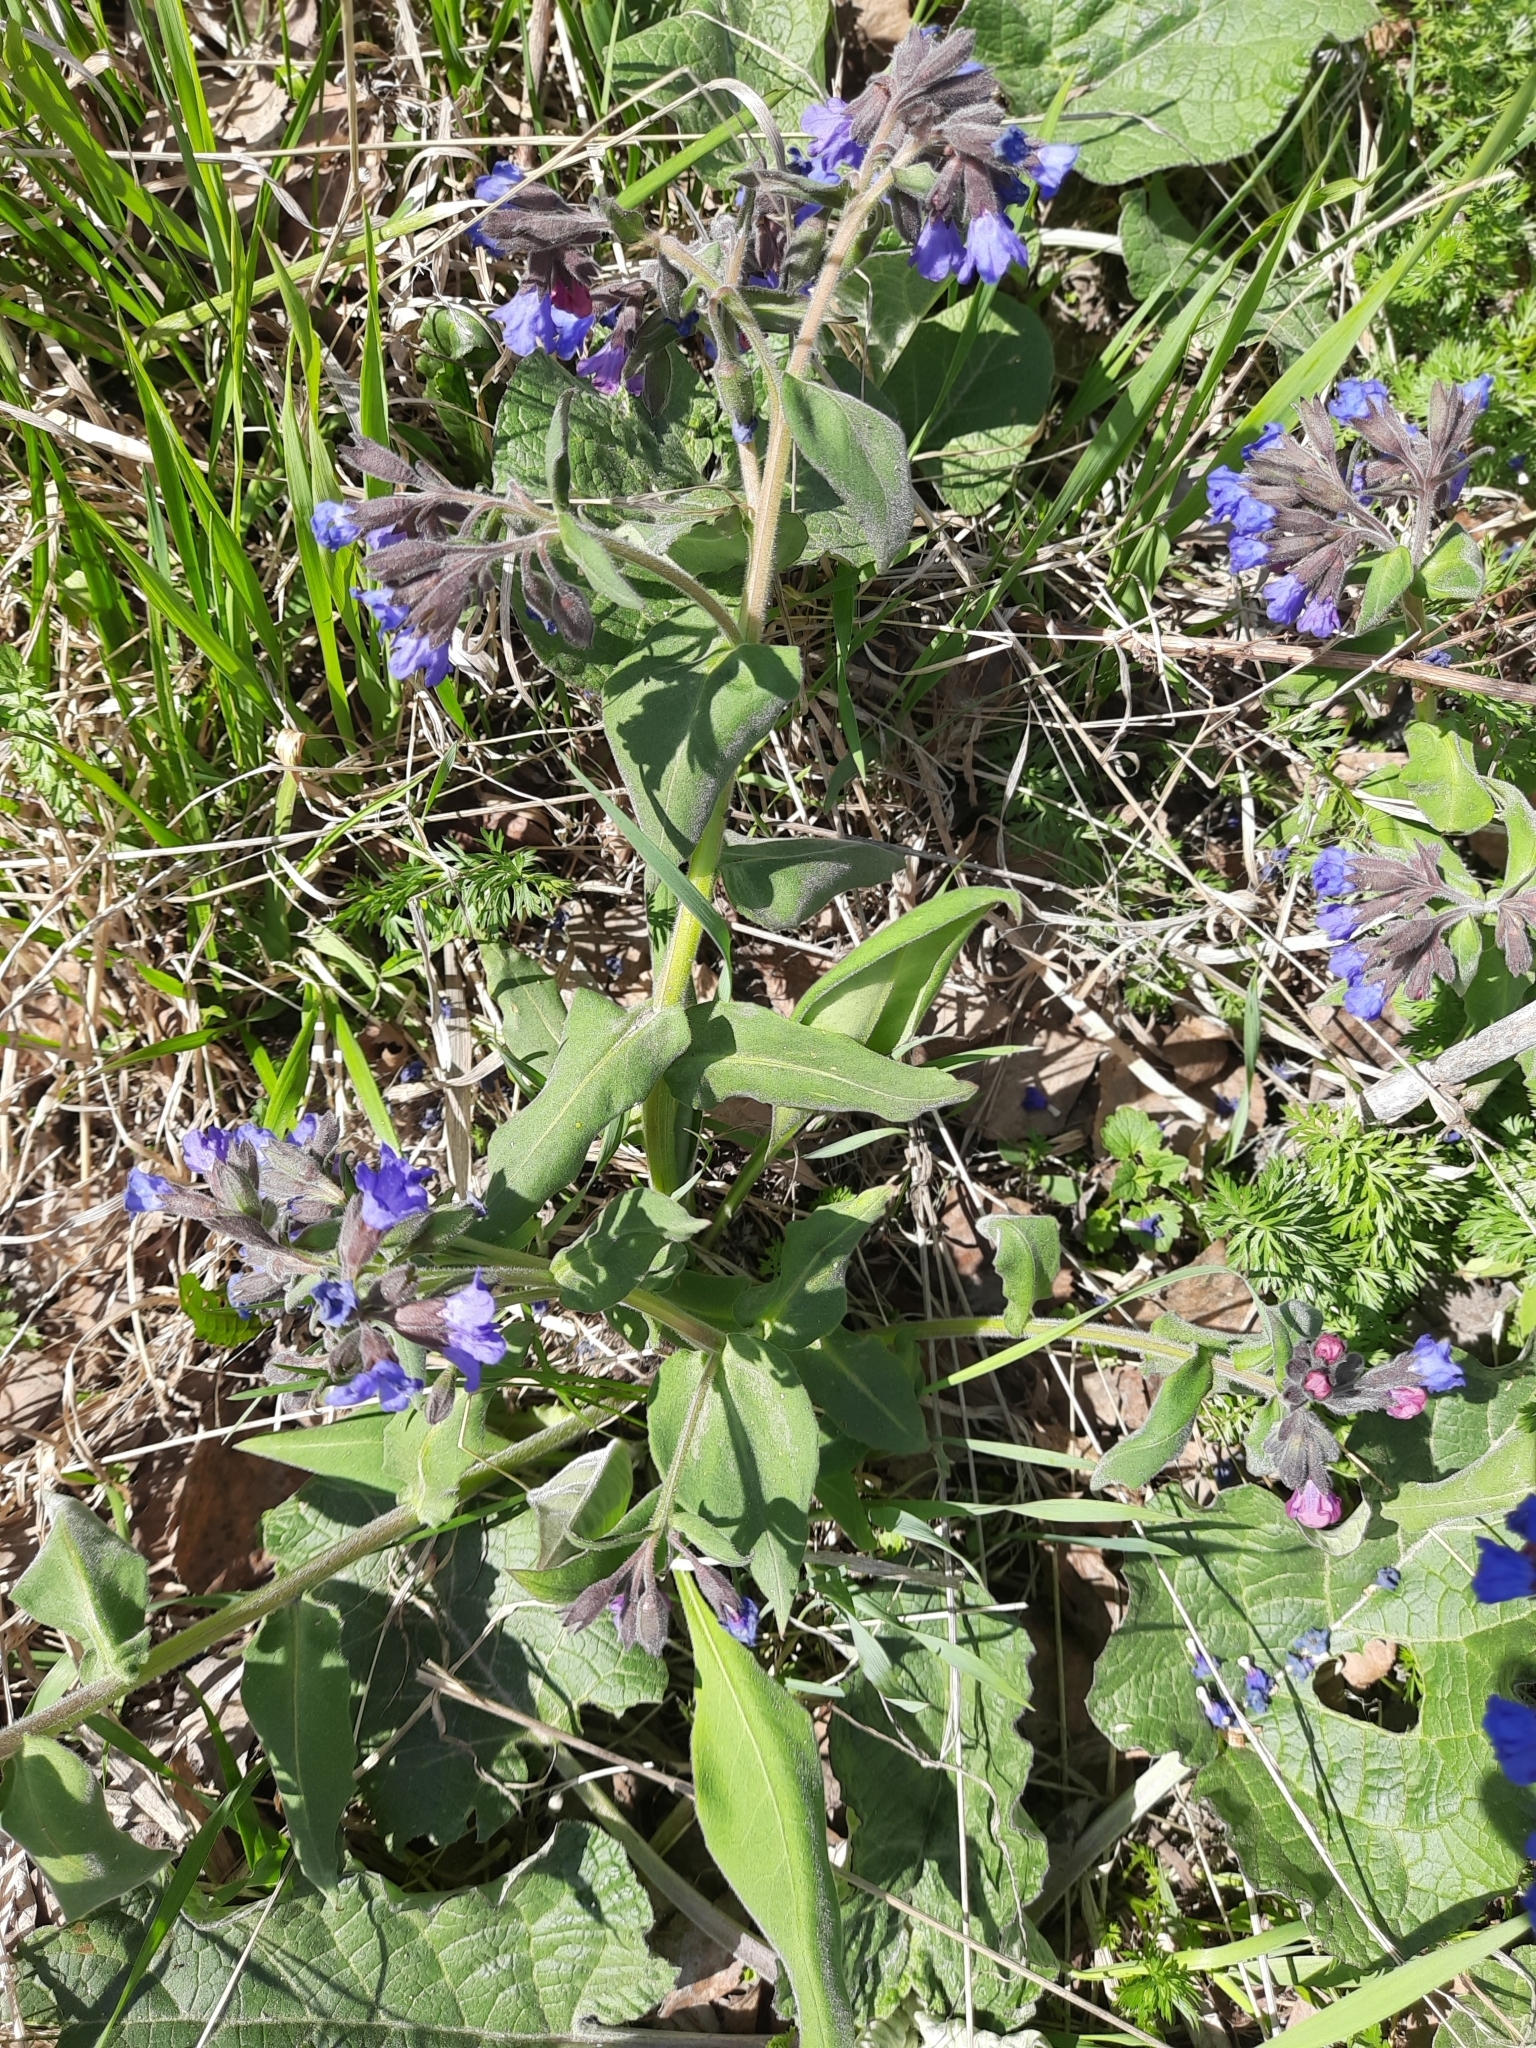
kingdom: Plantae
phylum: Tracheophyta
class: Magnoliopsida
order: Boraginales
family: Boraginaceae
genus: Pulmonaria
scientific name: Pulmonaria mollis
